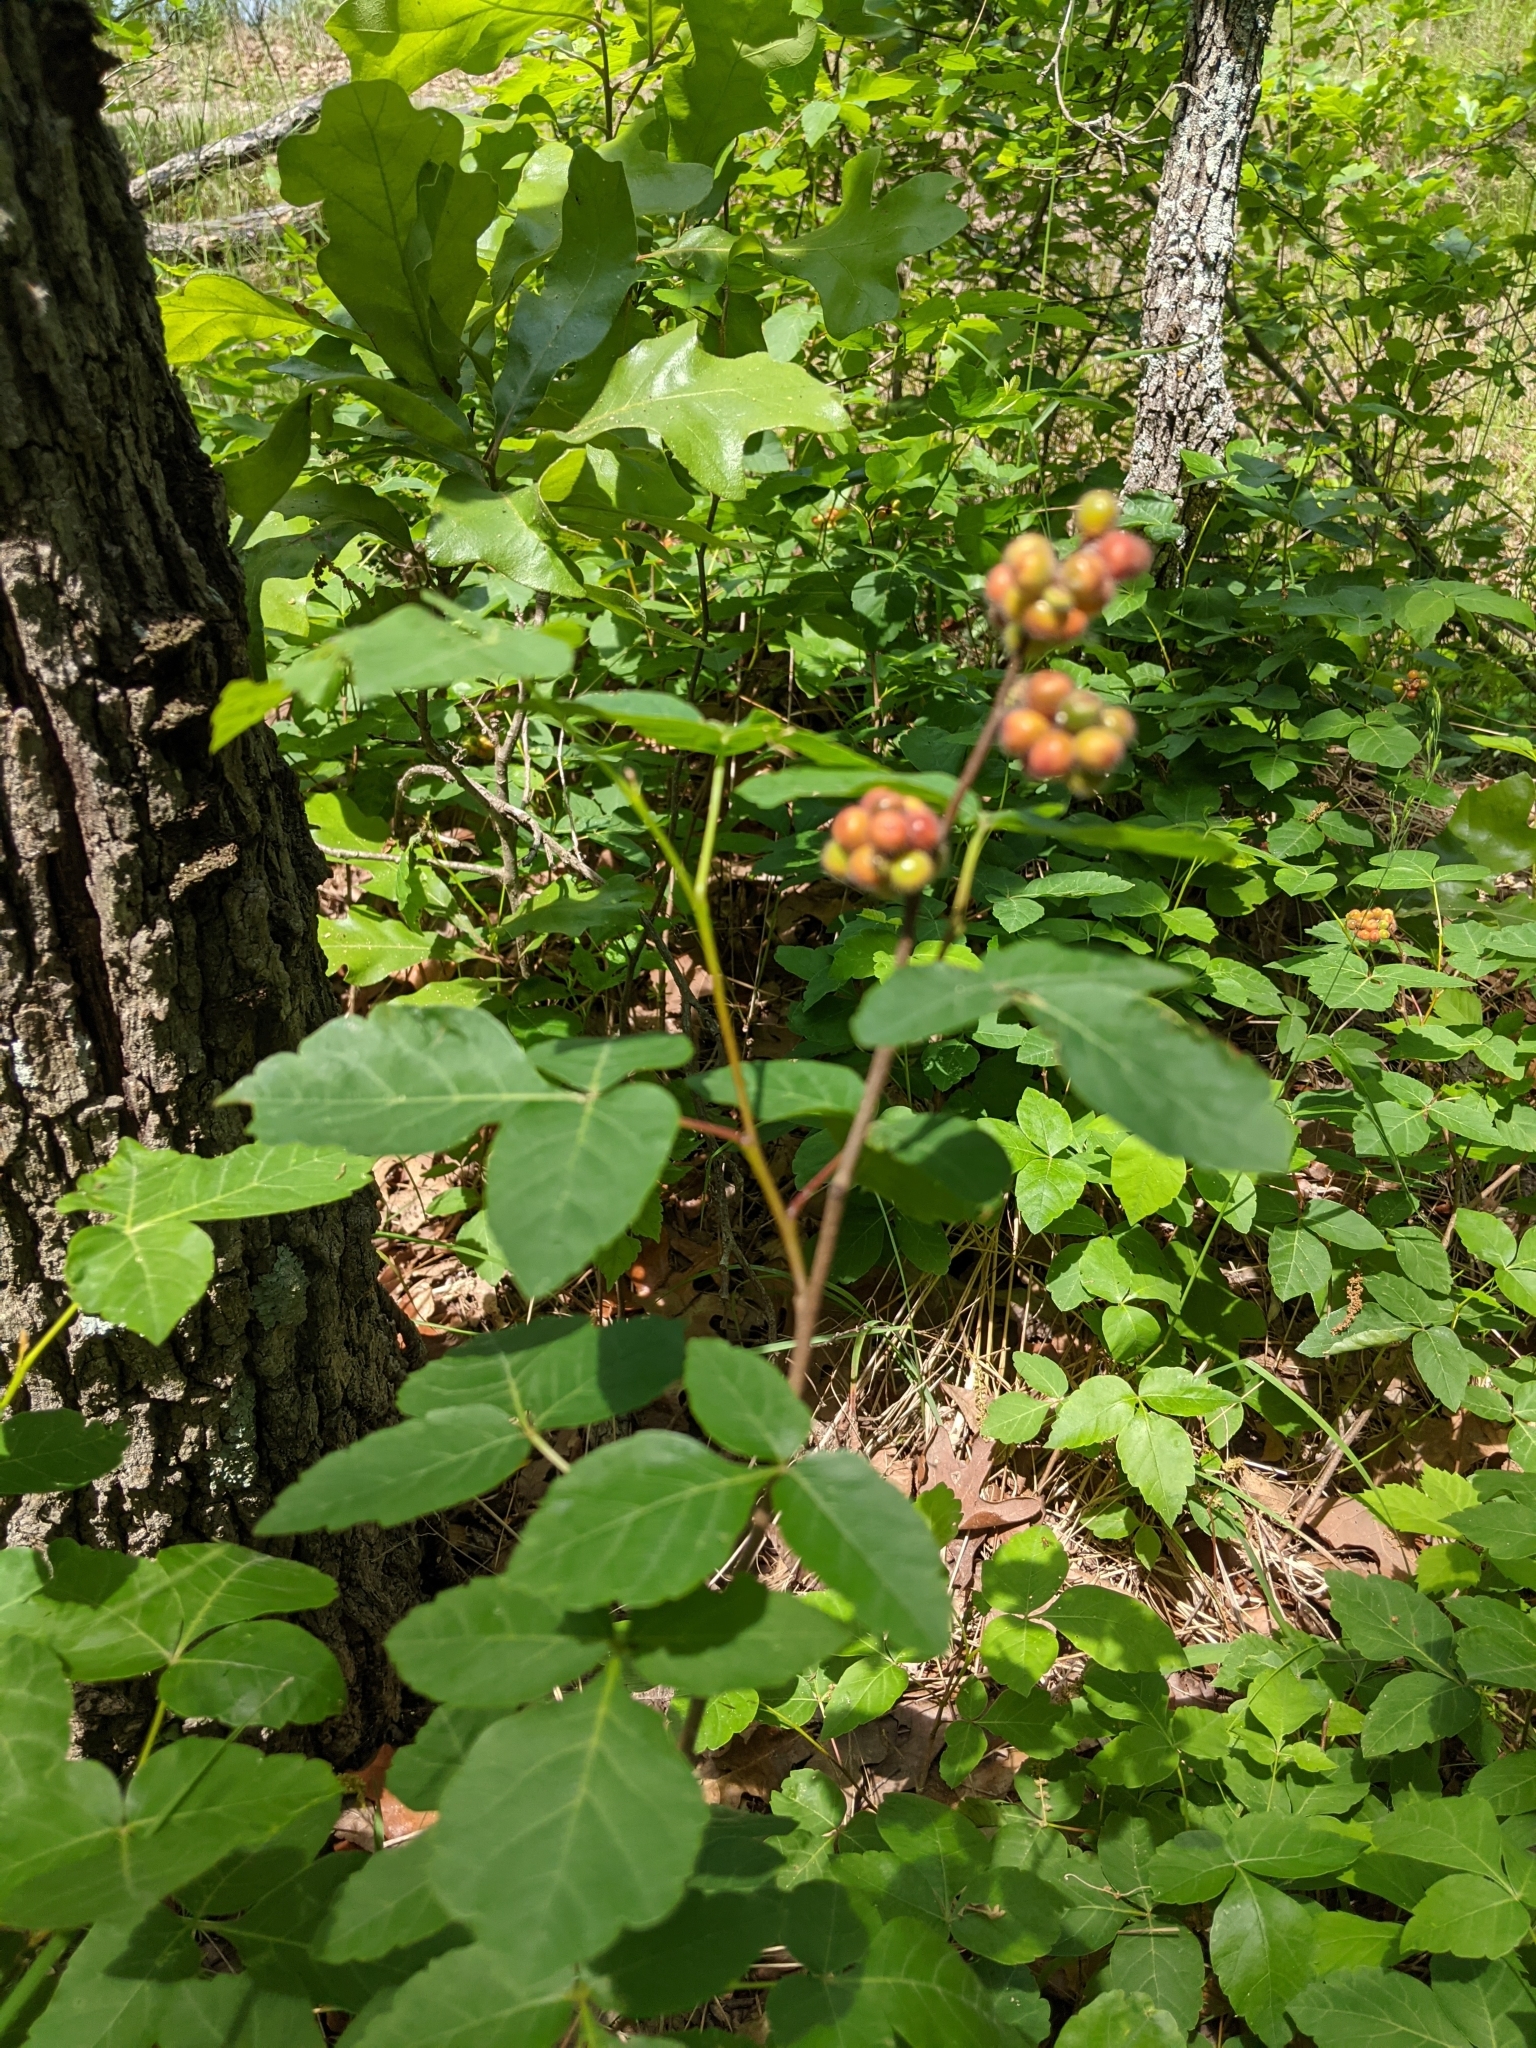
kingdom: Plantae
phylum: Tracheophyta
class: Magnoliopsida
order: Sapindales
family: Anacardiaceae
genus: Rhus
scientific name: Rhus aromatica
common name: Aromatic sumac
